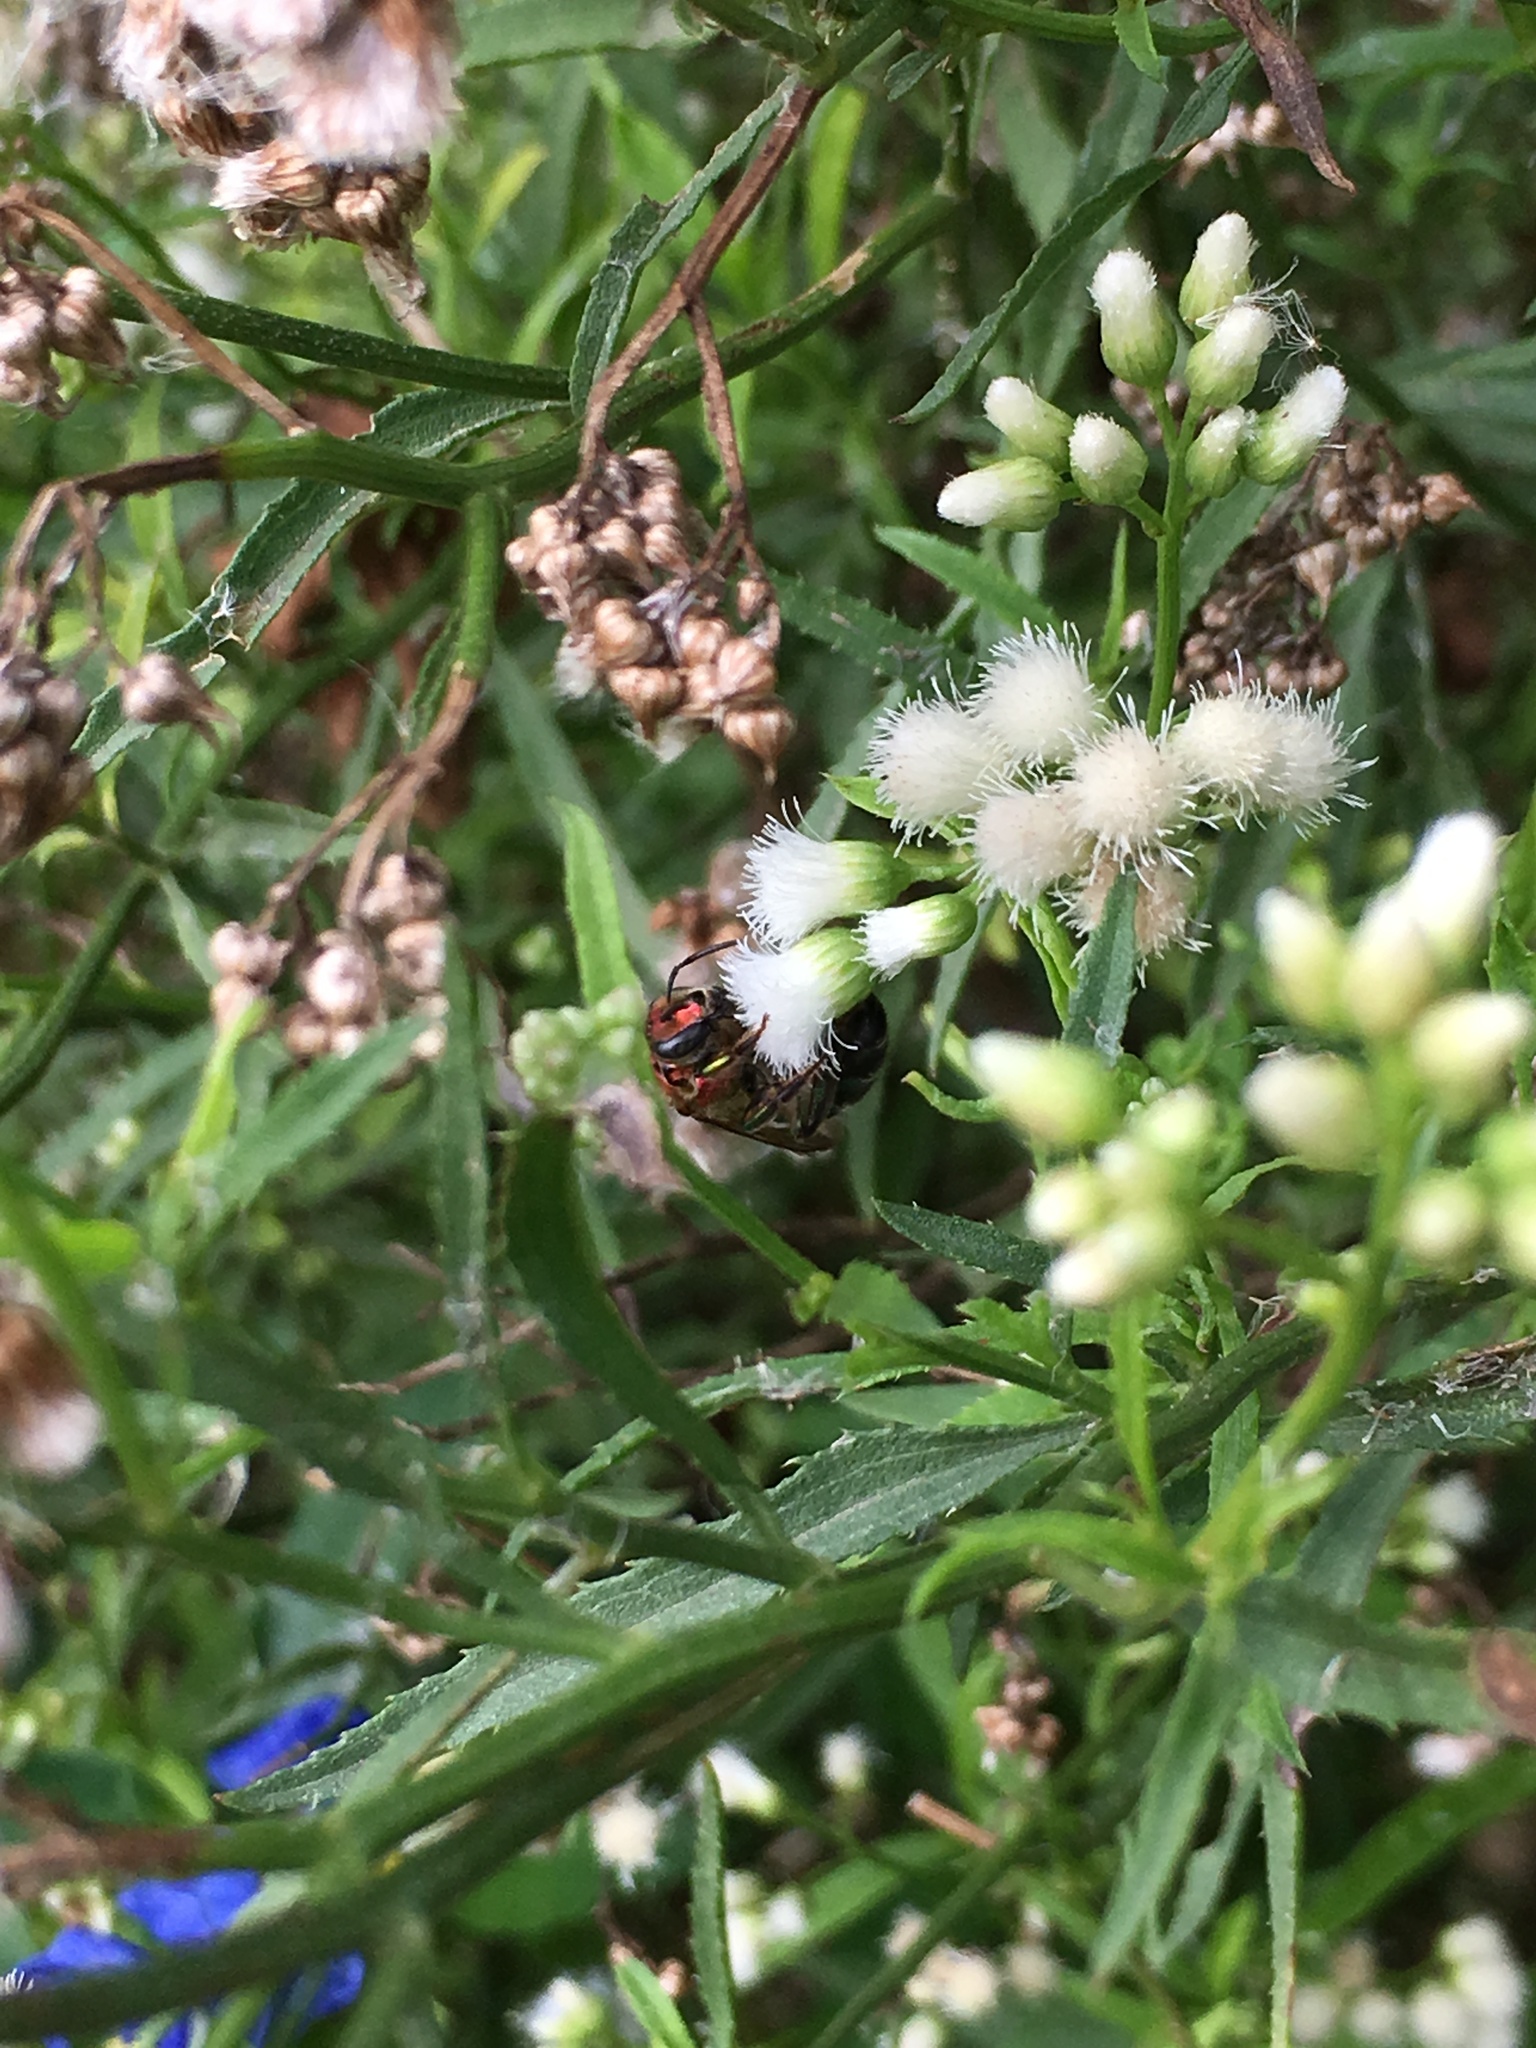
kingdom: Animalia
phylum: Arthropoda
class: Insecta
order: Hymenoptera
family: Halictidae
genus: Augochloropsis
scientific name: Augochloropsis tupacamaru
